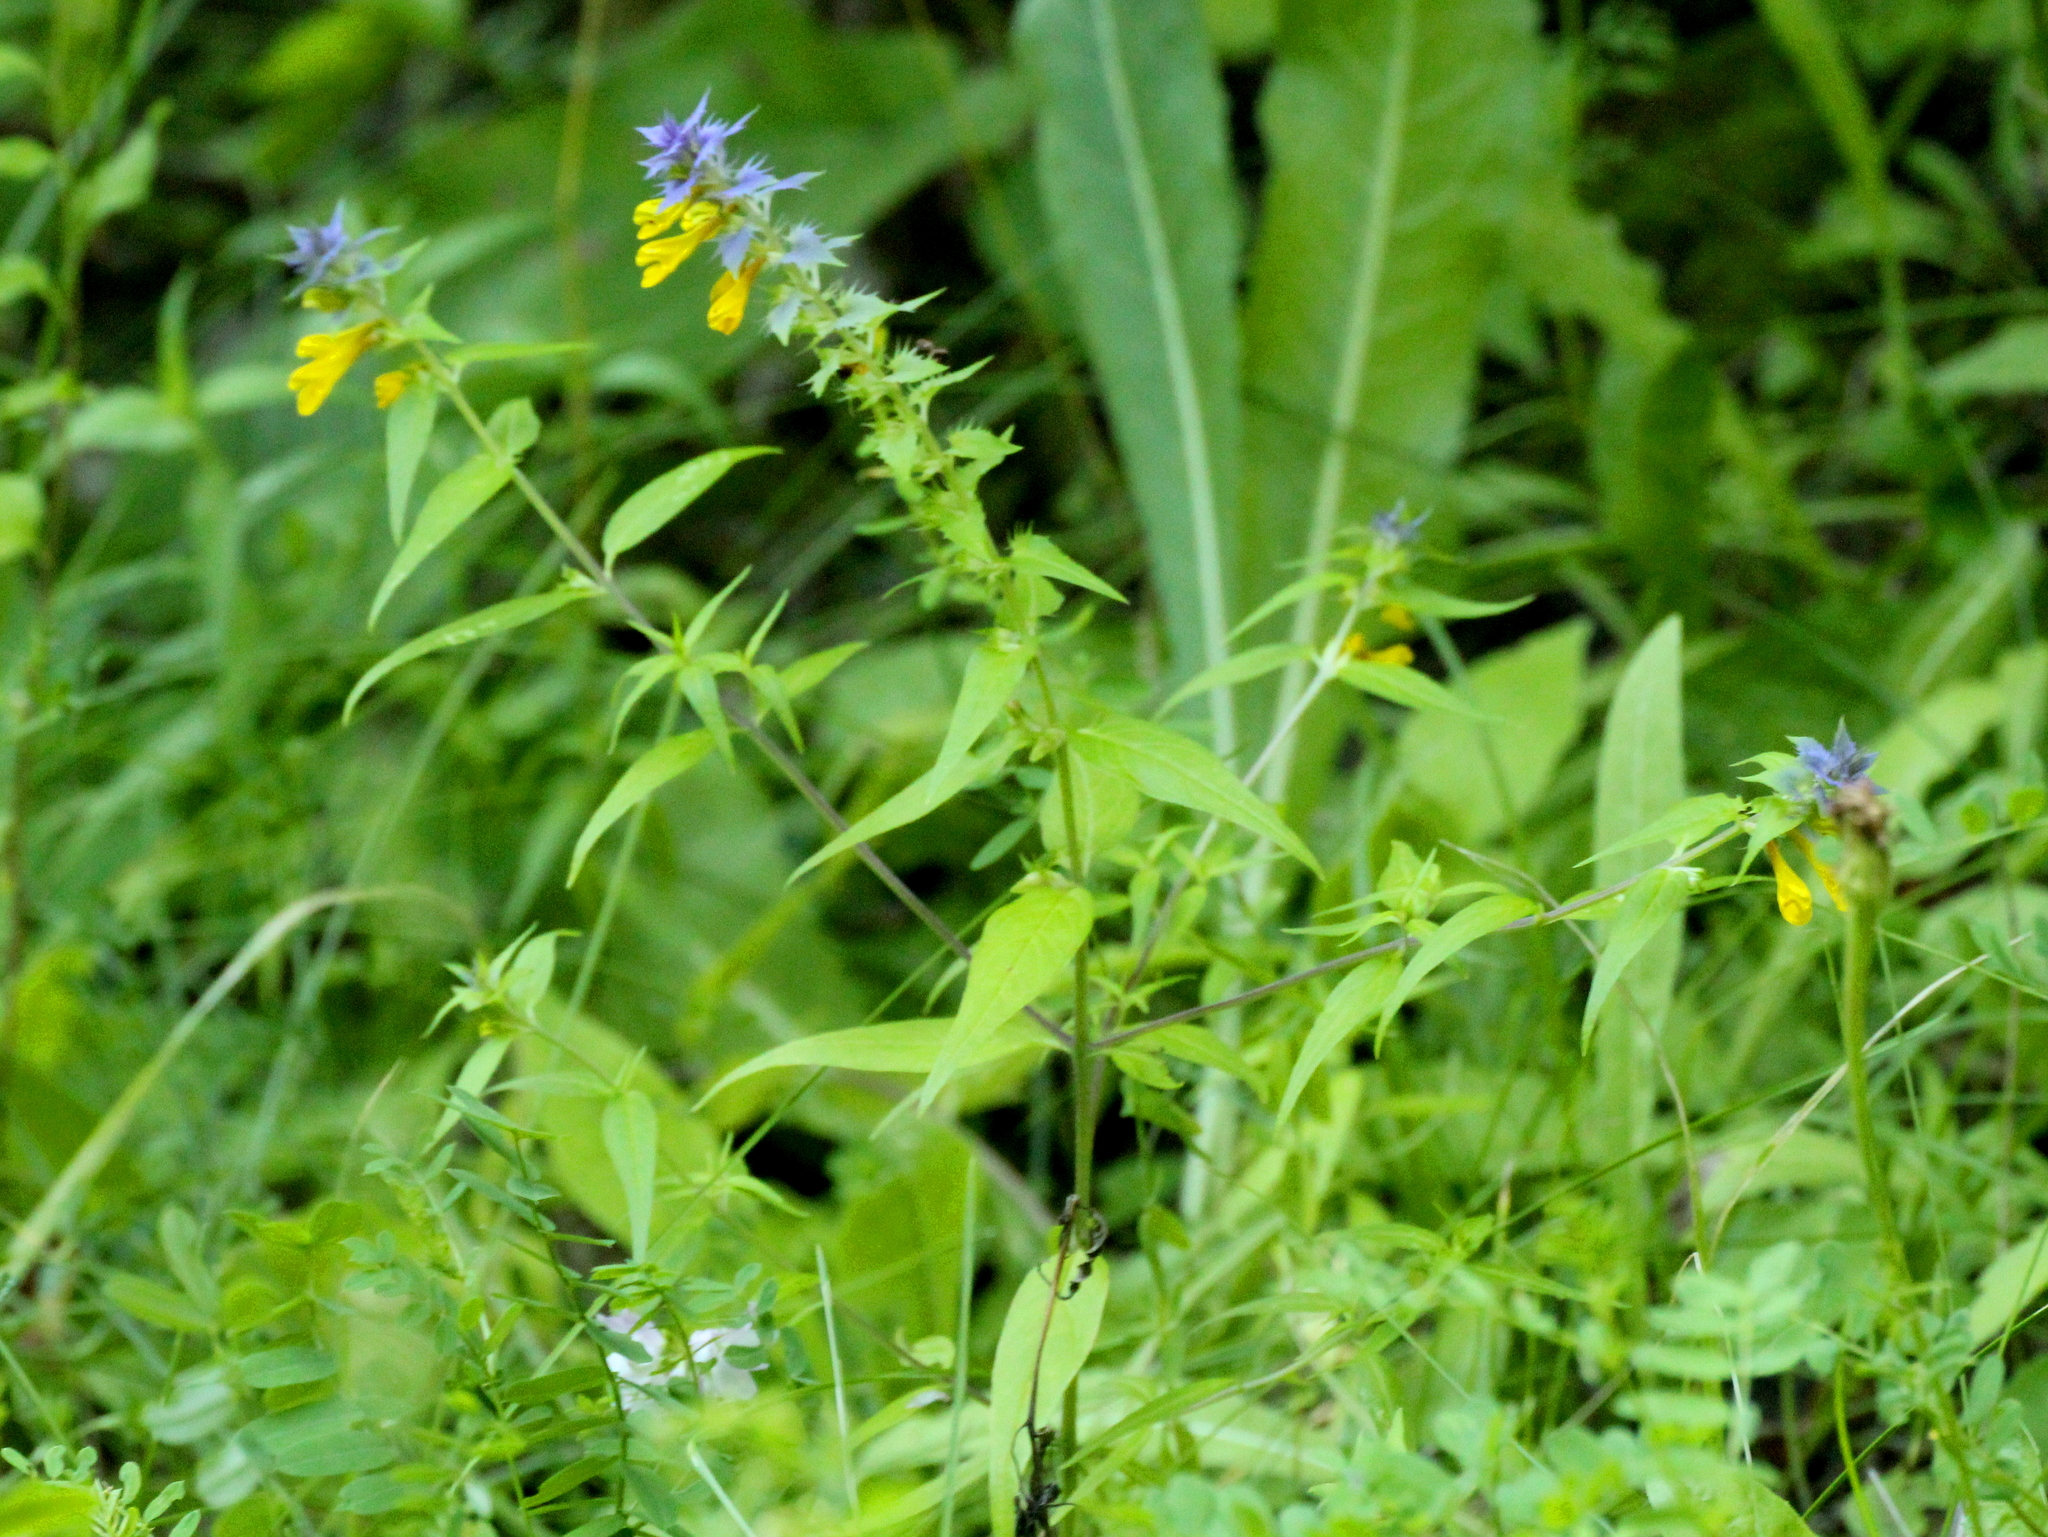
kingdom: Plantae
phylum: Tracheophyta
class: Magnoliopsida
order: Lamiales
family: Orobanchaceae
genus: Melampyrum
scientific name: Melampyrum nemorosum
